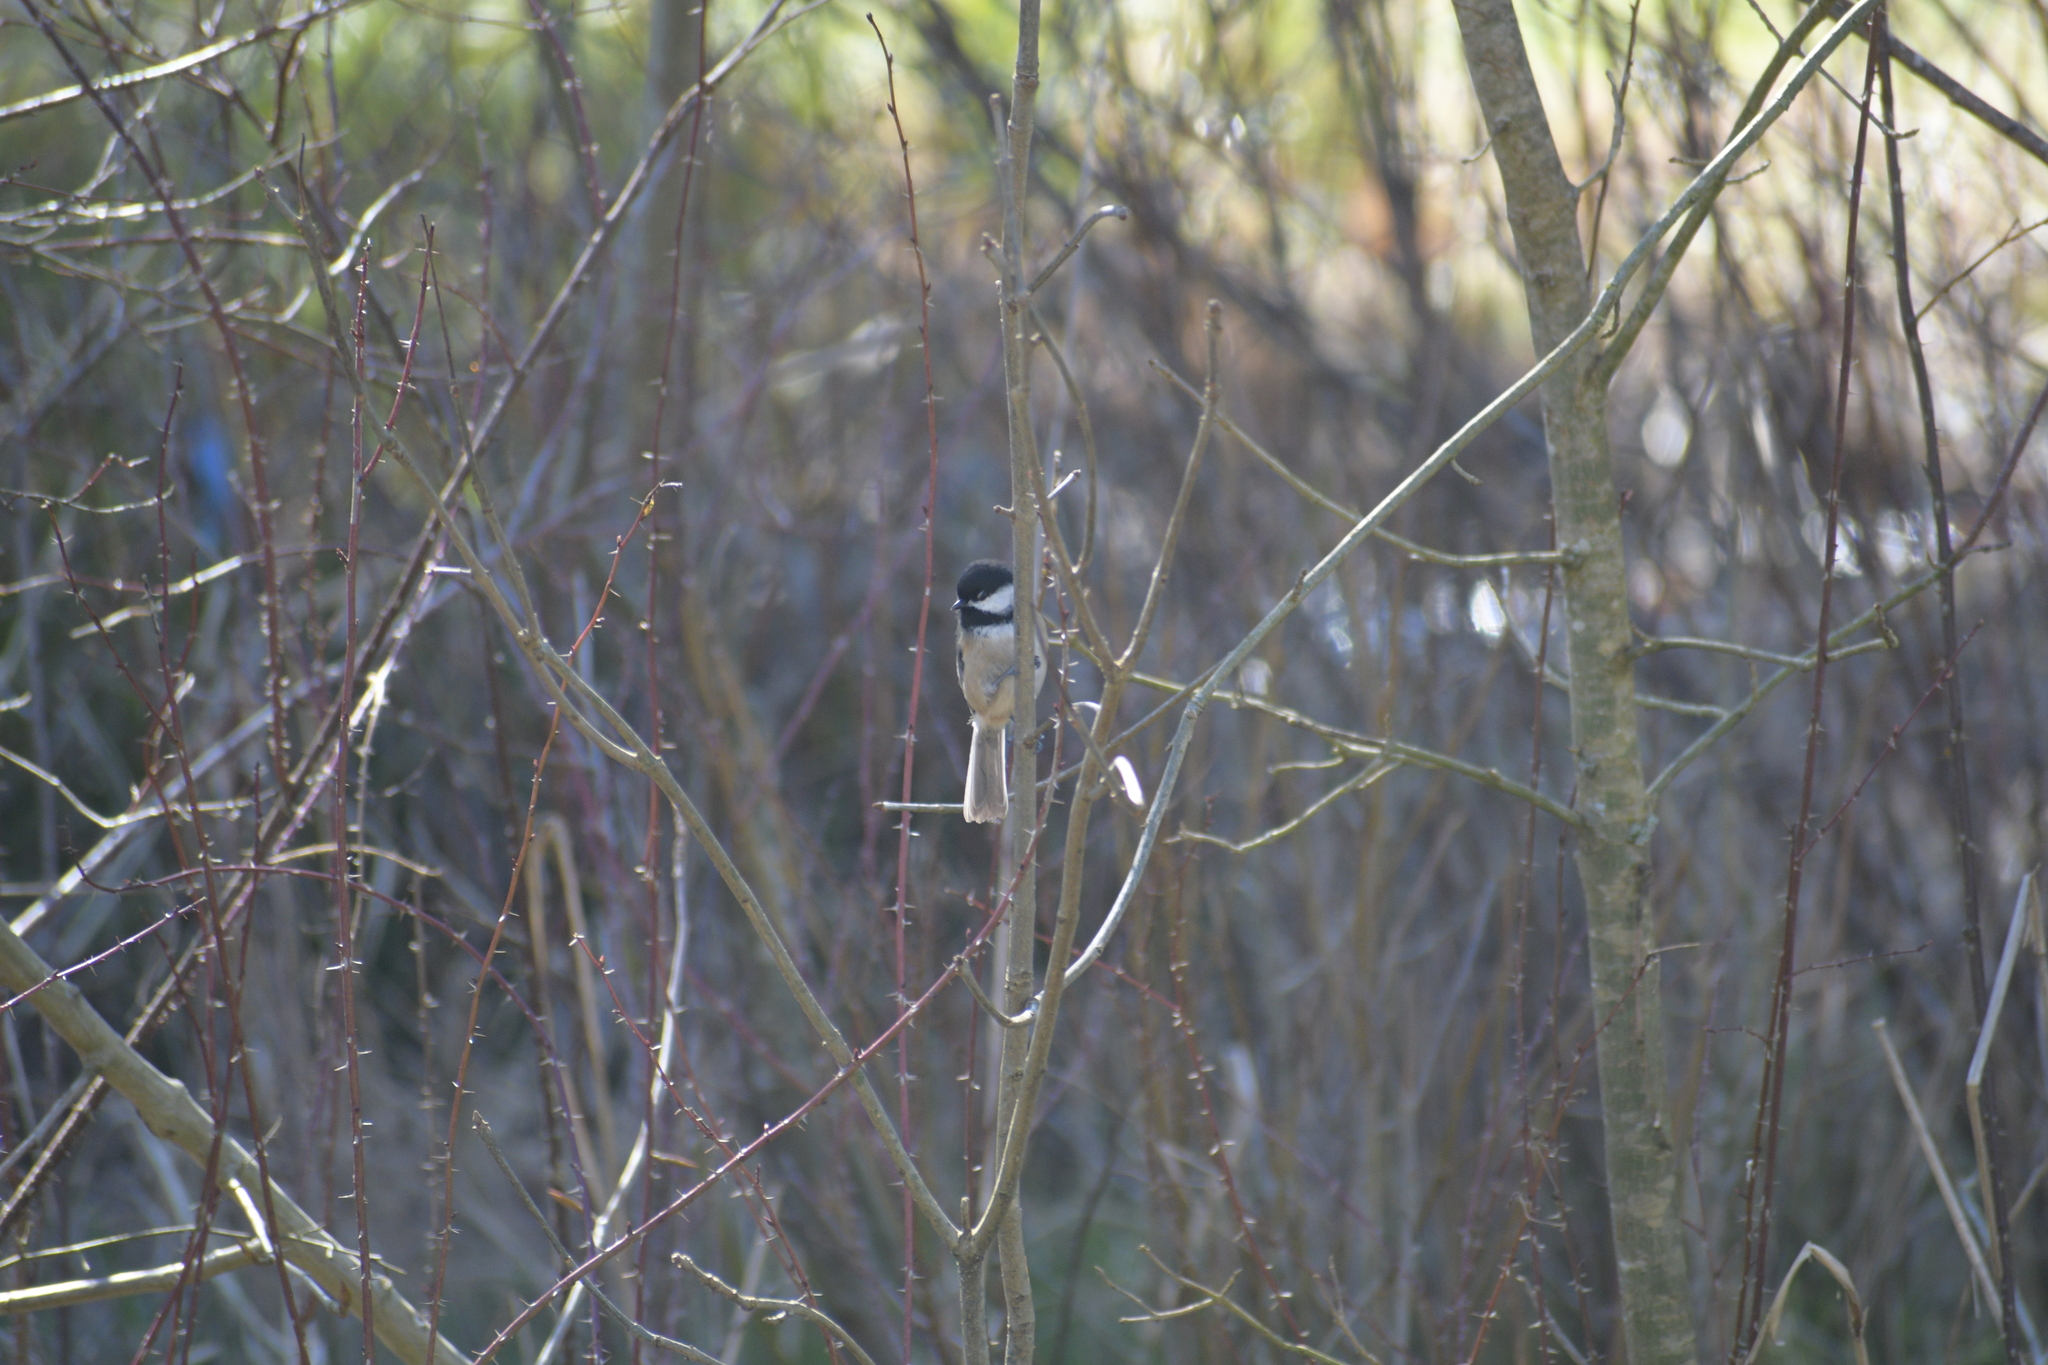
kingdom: Animalia
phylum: Chordata
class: Aves
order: Passeriformes
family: Paridae
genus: Poecile
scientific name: Poecile atricapillus
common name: Black-capped chickadee
